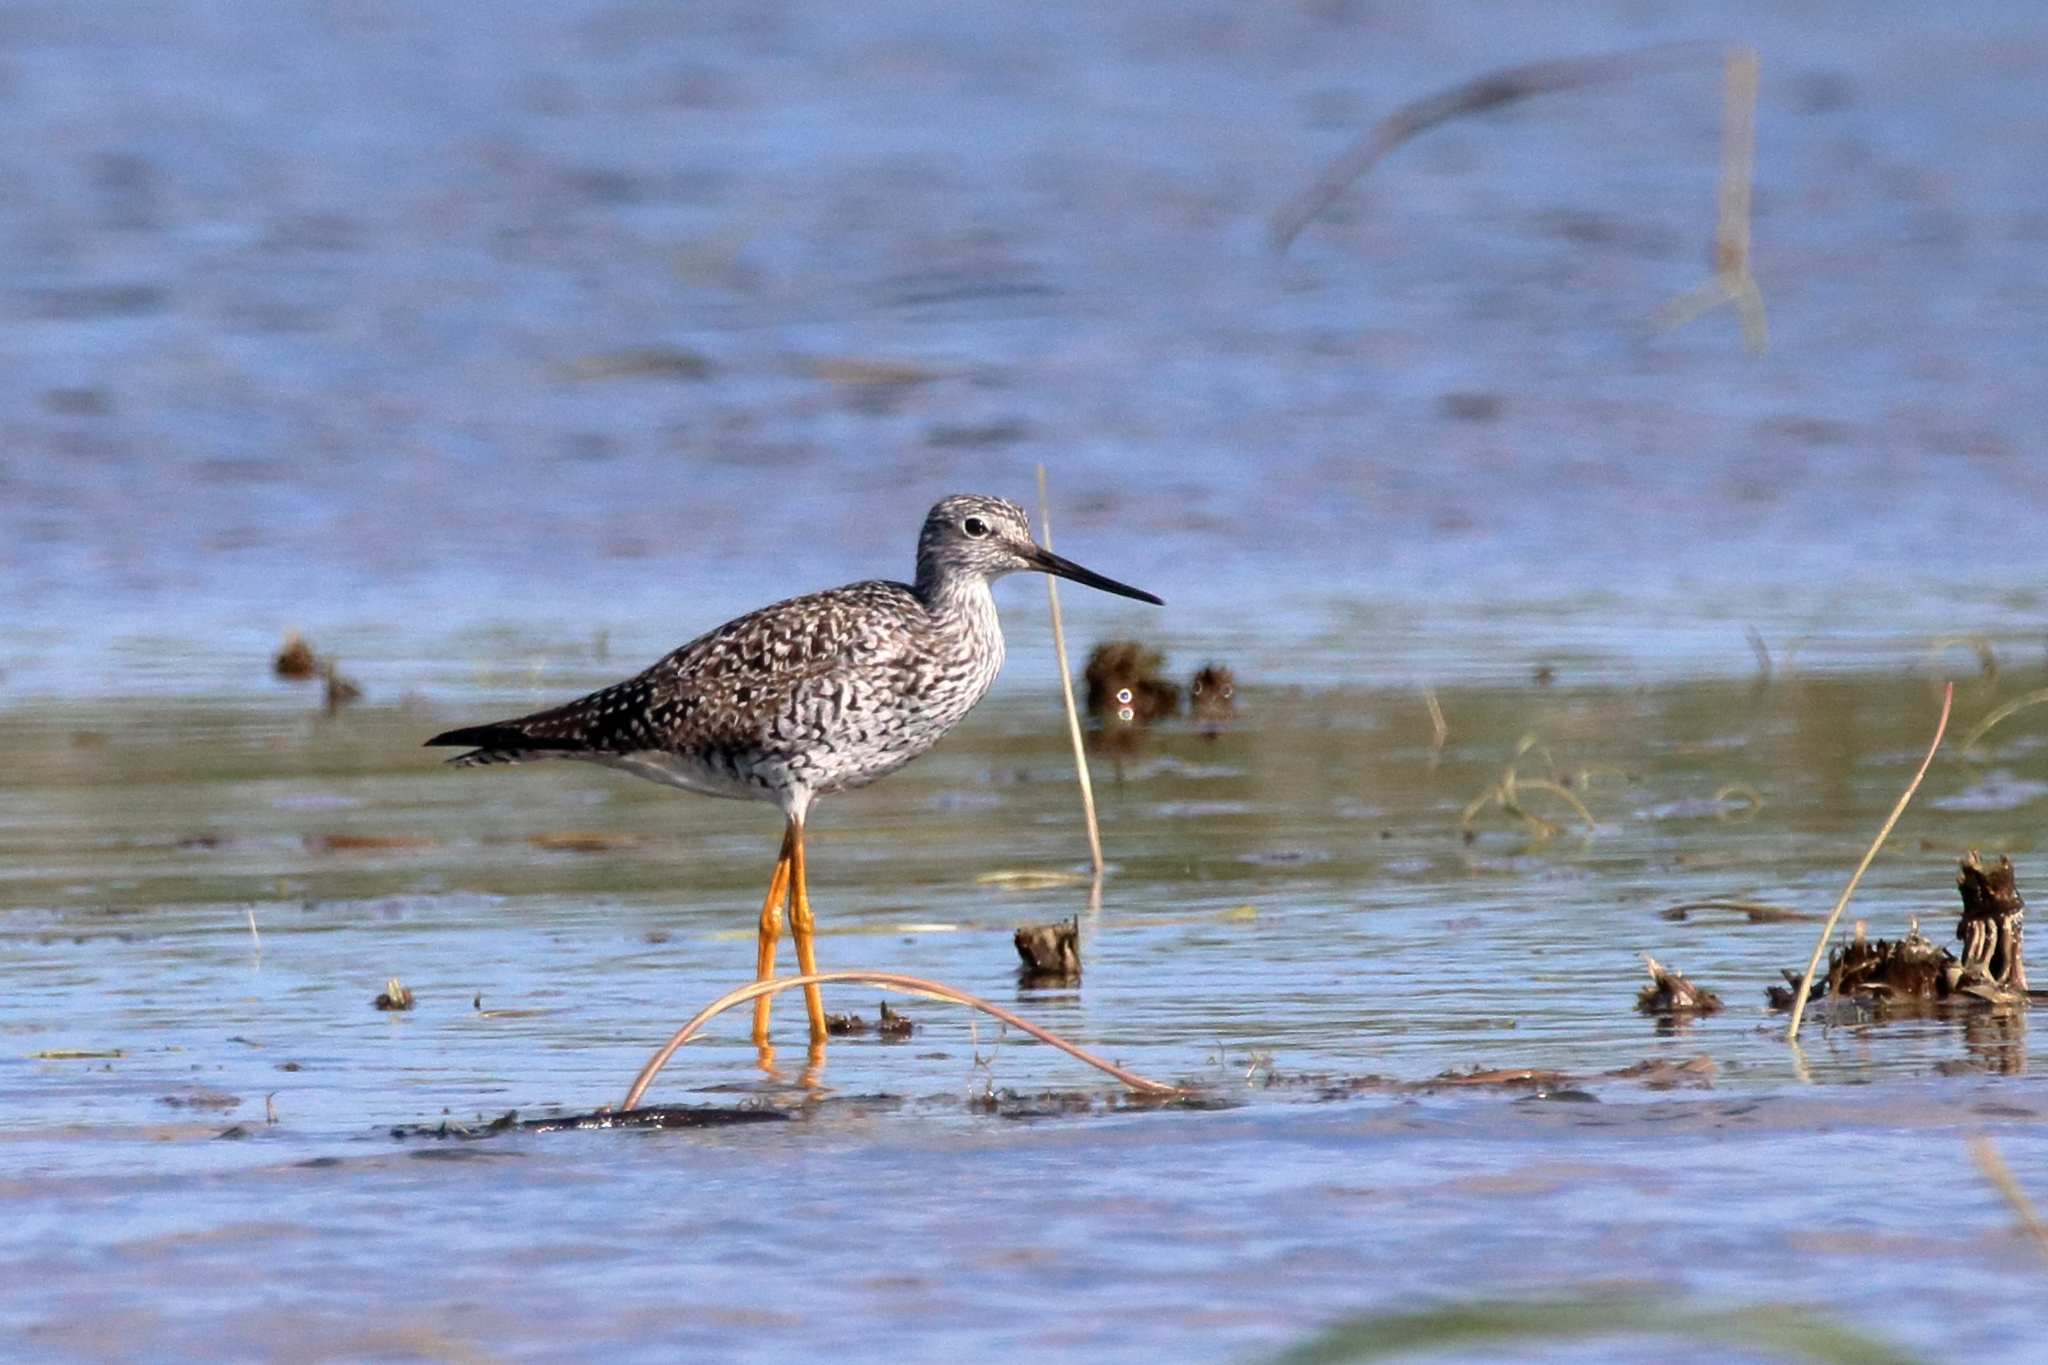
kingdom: Animalia
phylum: Chordata
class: Aves
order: Charadriiformes
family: Scolopacidae
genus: Tringa
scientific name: Tringa melanoleuca
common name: Greater yellowlegs
